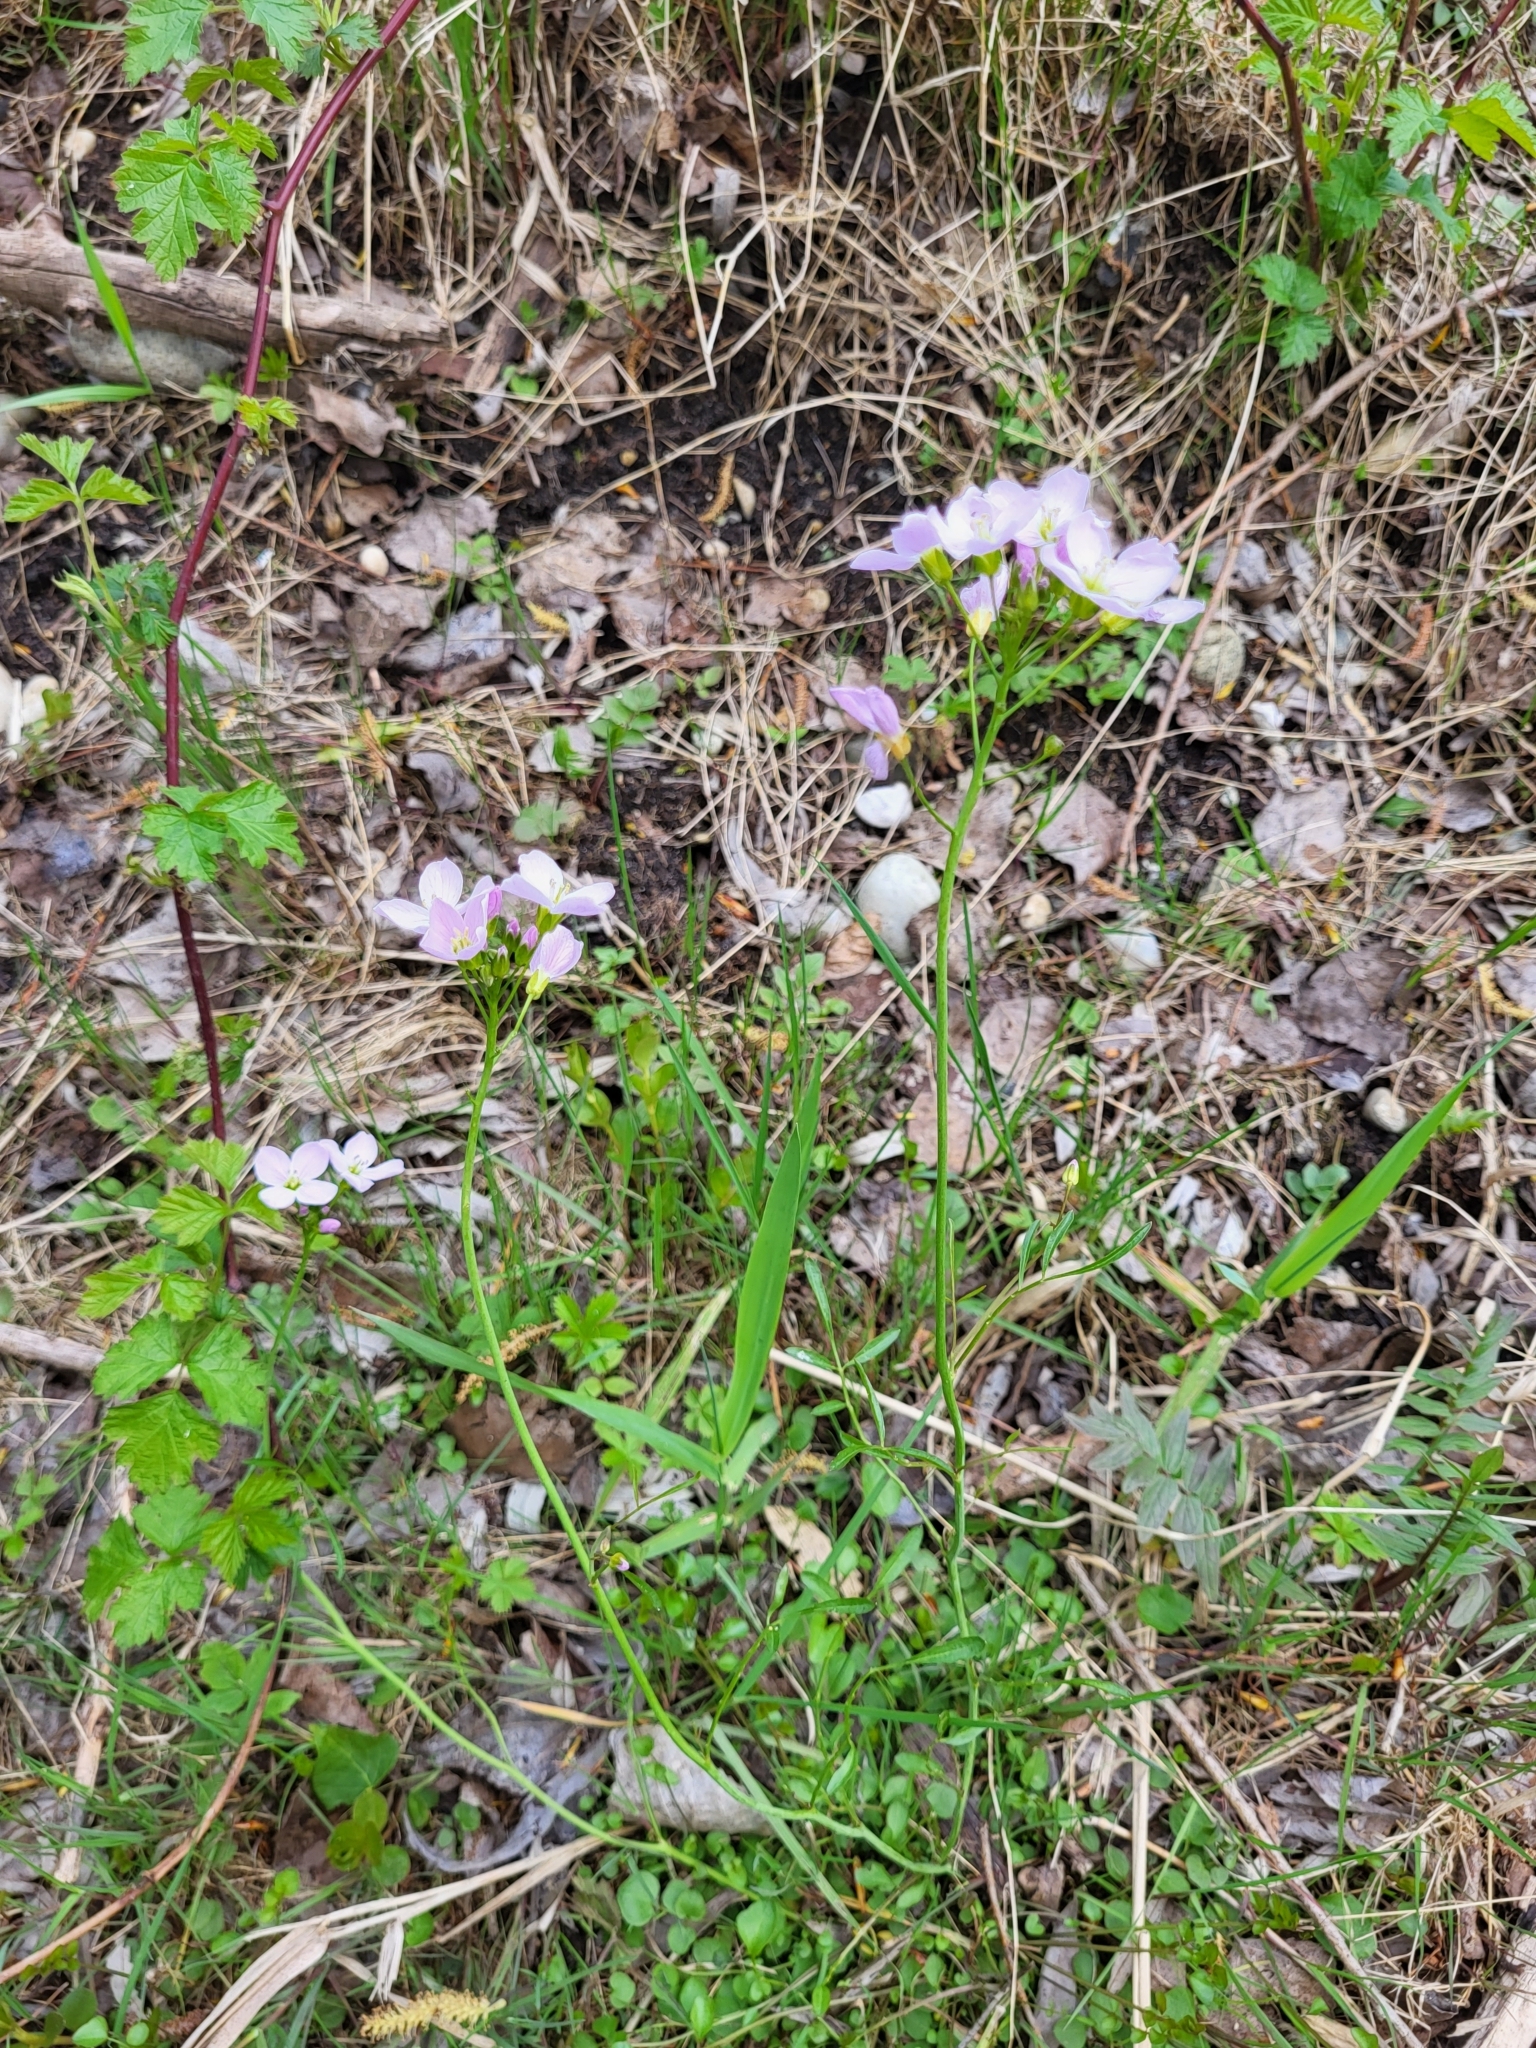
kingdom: Plantae
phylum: Tracheophyta
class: Magnoliopsida
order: Brassicales
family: Brassicaceae
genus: Cardamine
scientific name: Cardamine pratensis
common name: Cuckoo flower
